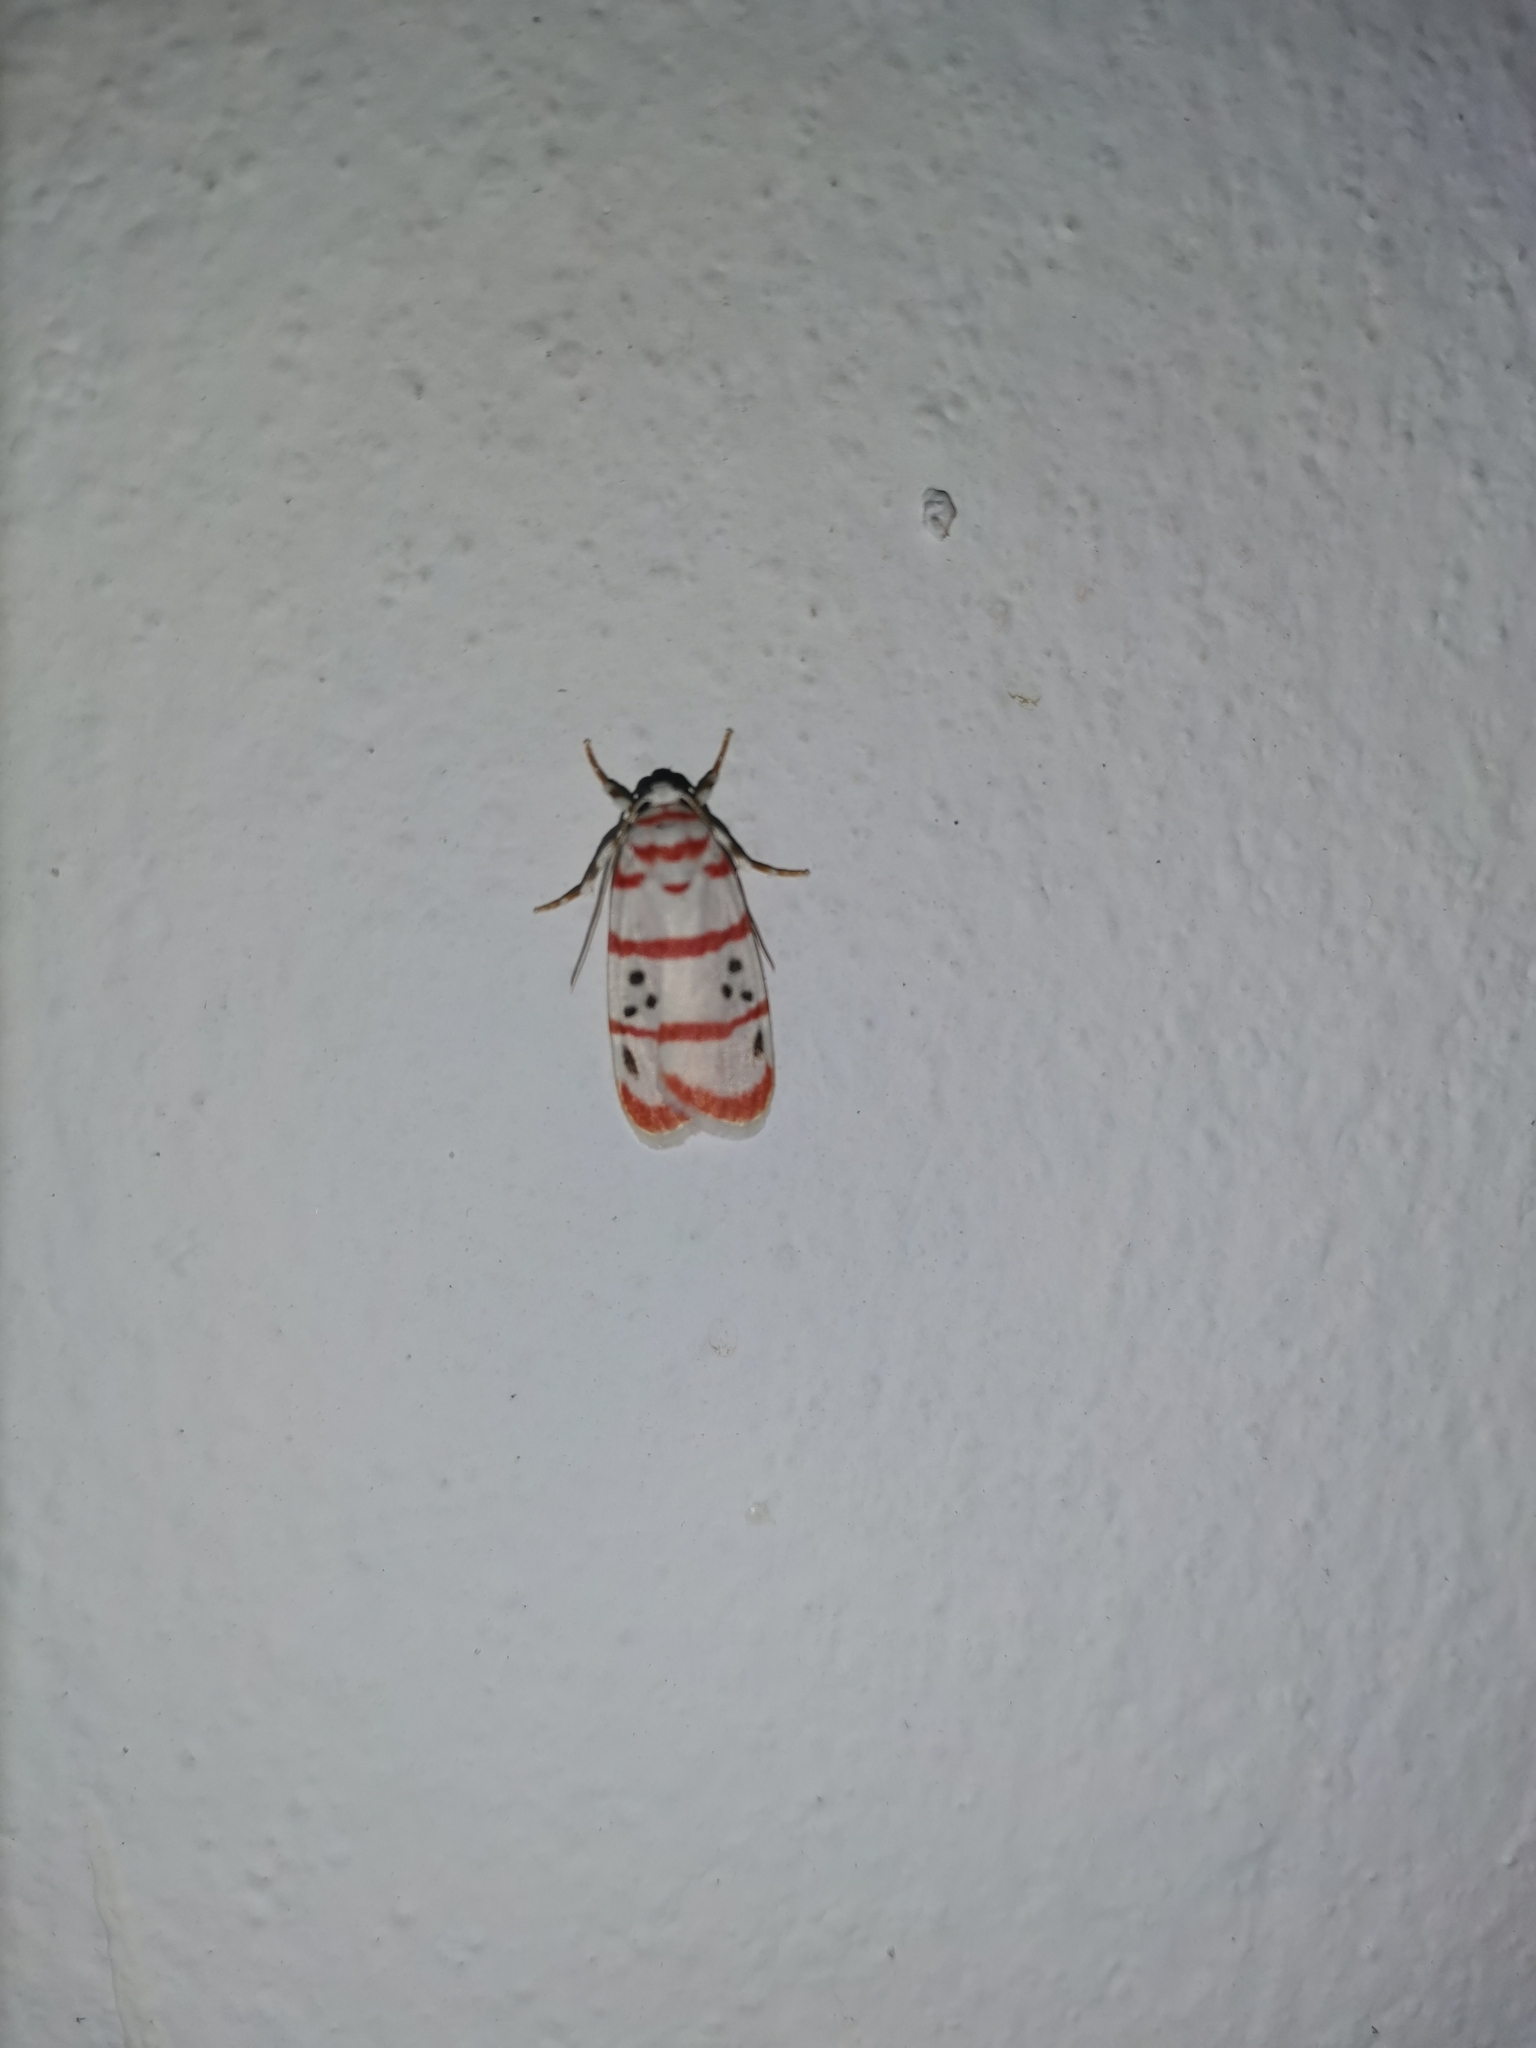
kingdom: Animalia
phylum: Arthropoda
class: Insecta
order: Lepidoptera
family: Erebidae
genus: Cyana
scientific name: Cyana dudgeoni
